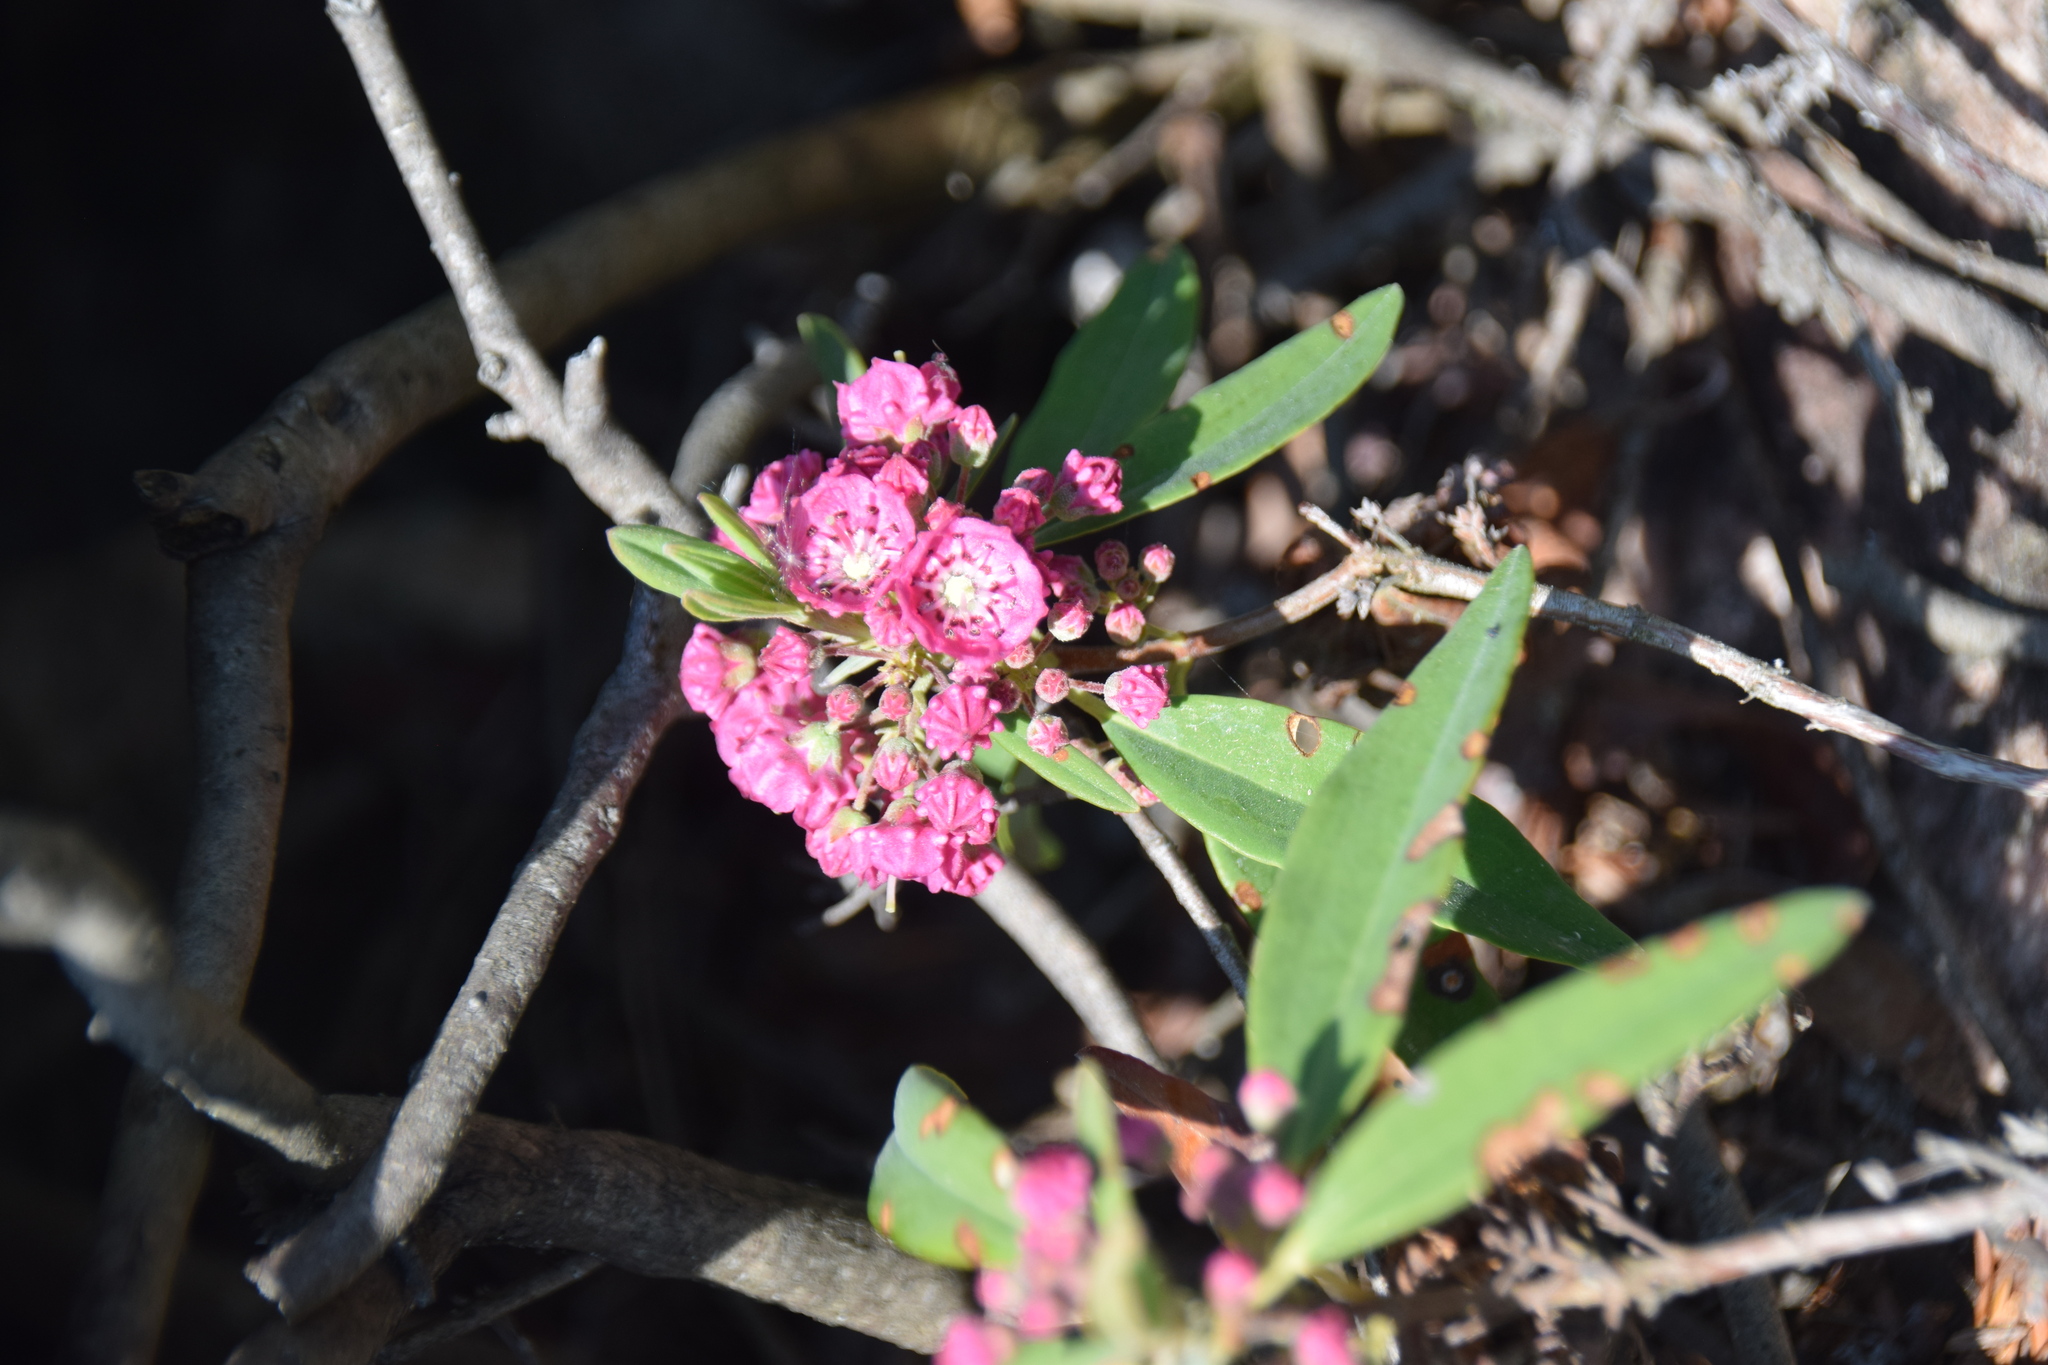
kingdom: Plantae
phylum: Tracheophyta
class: Magnoliopsida
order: Ericales
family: Ericaceae
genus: Kalmia
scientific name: Kalmia angustifolia
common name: Sheep-laurel
